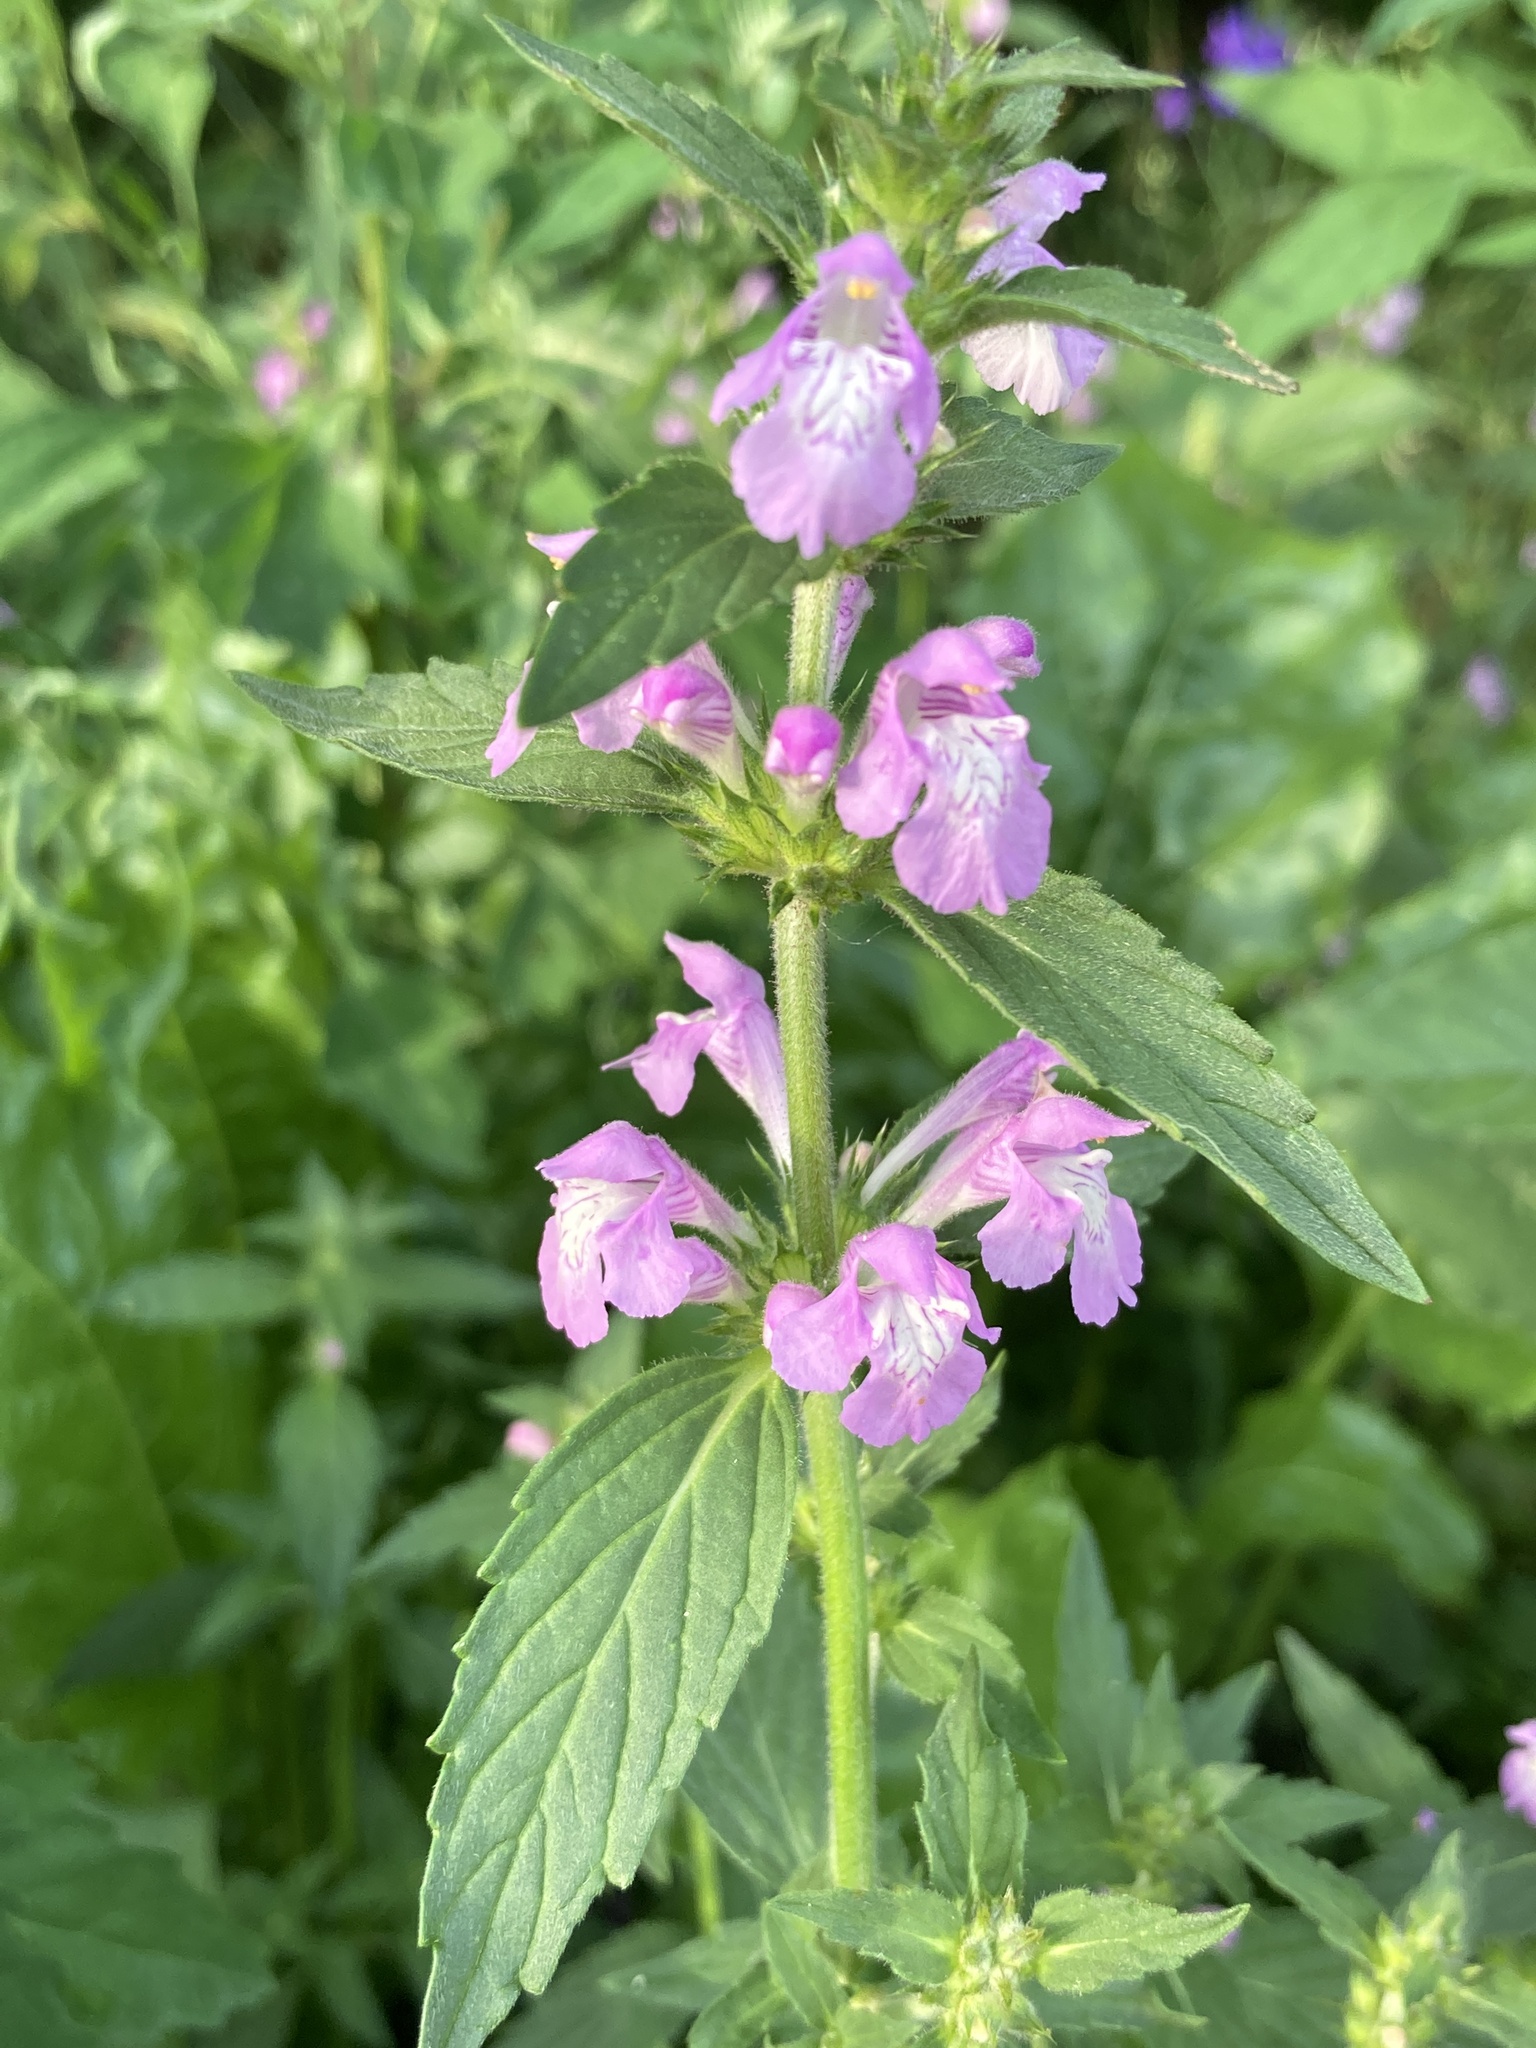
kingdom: Plantae
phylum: Tracheophyta
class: Magnoliopsida
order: Lamiales
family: Lamiaceae
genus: Galeopsis
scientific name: Galeopsis ladanum
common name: Broad-leaved hemp-nettle
